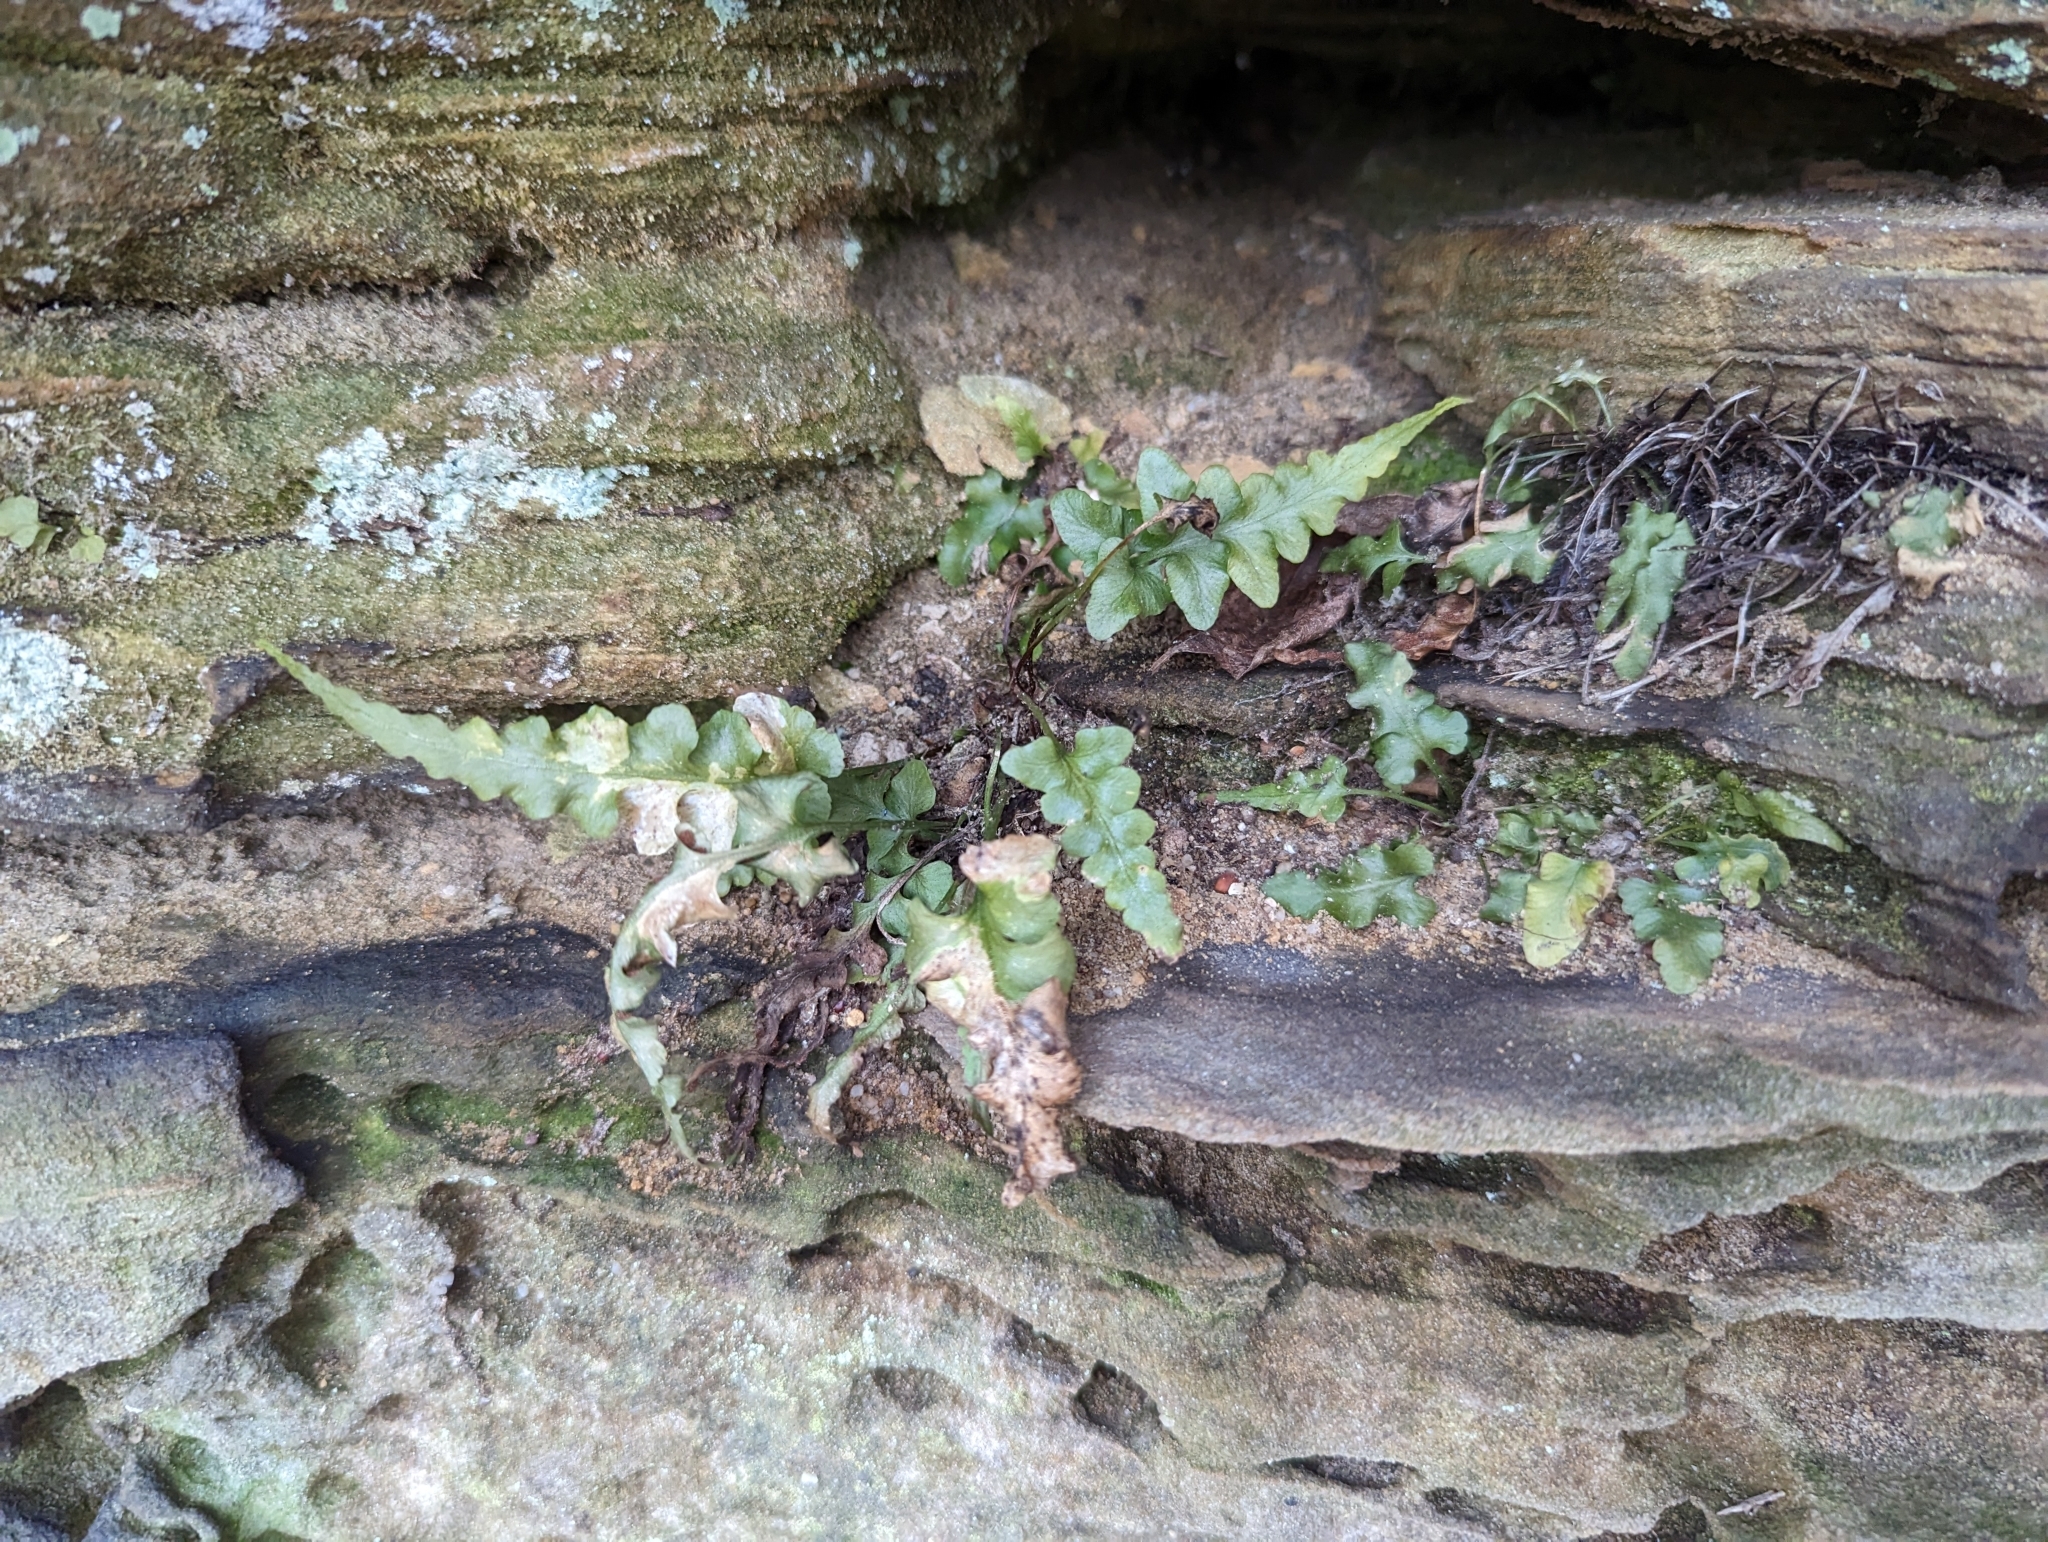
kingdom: Plantae
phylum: Tracheophyta
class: Polypodiopsida
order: Polypodiales
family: Aspleniaceae
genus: Asplenium
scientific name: Asplenium pinnatifidum
